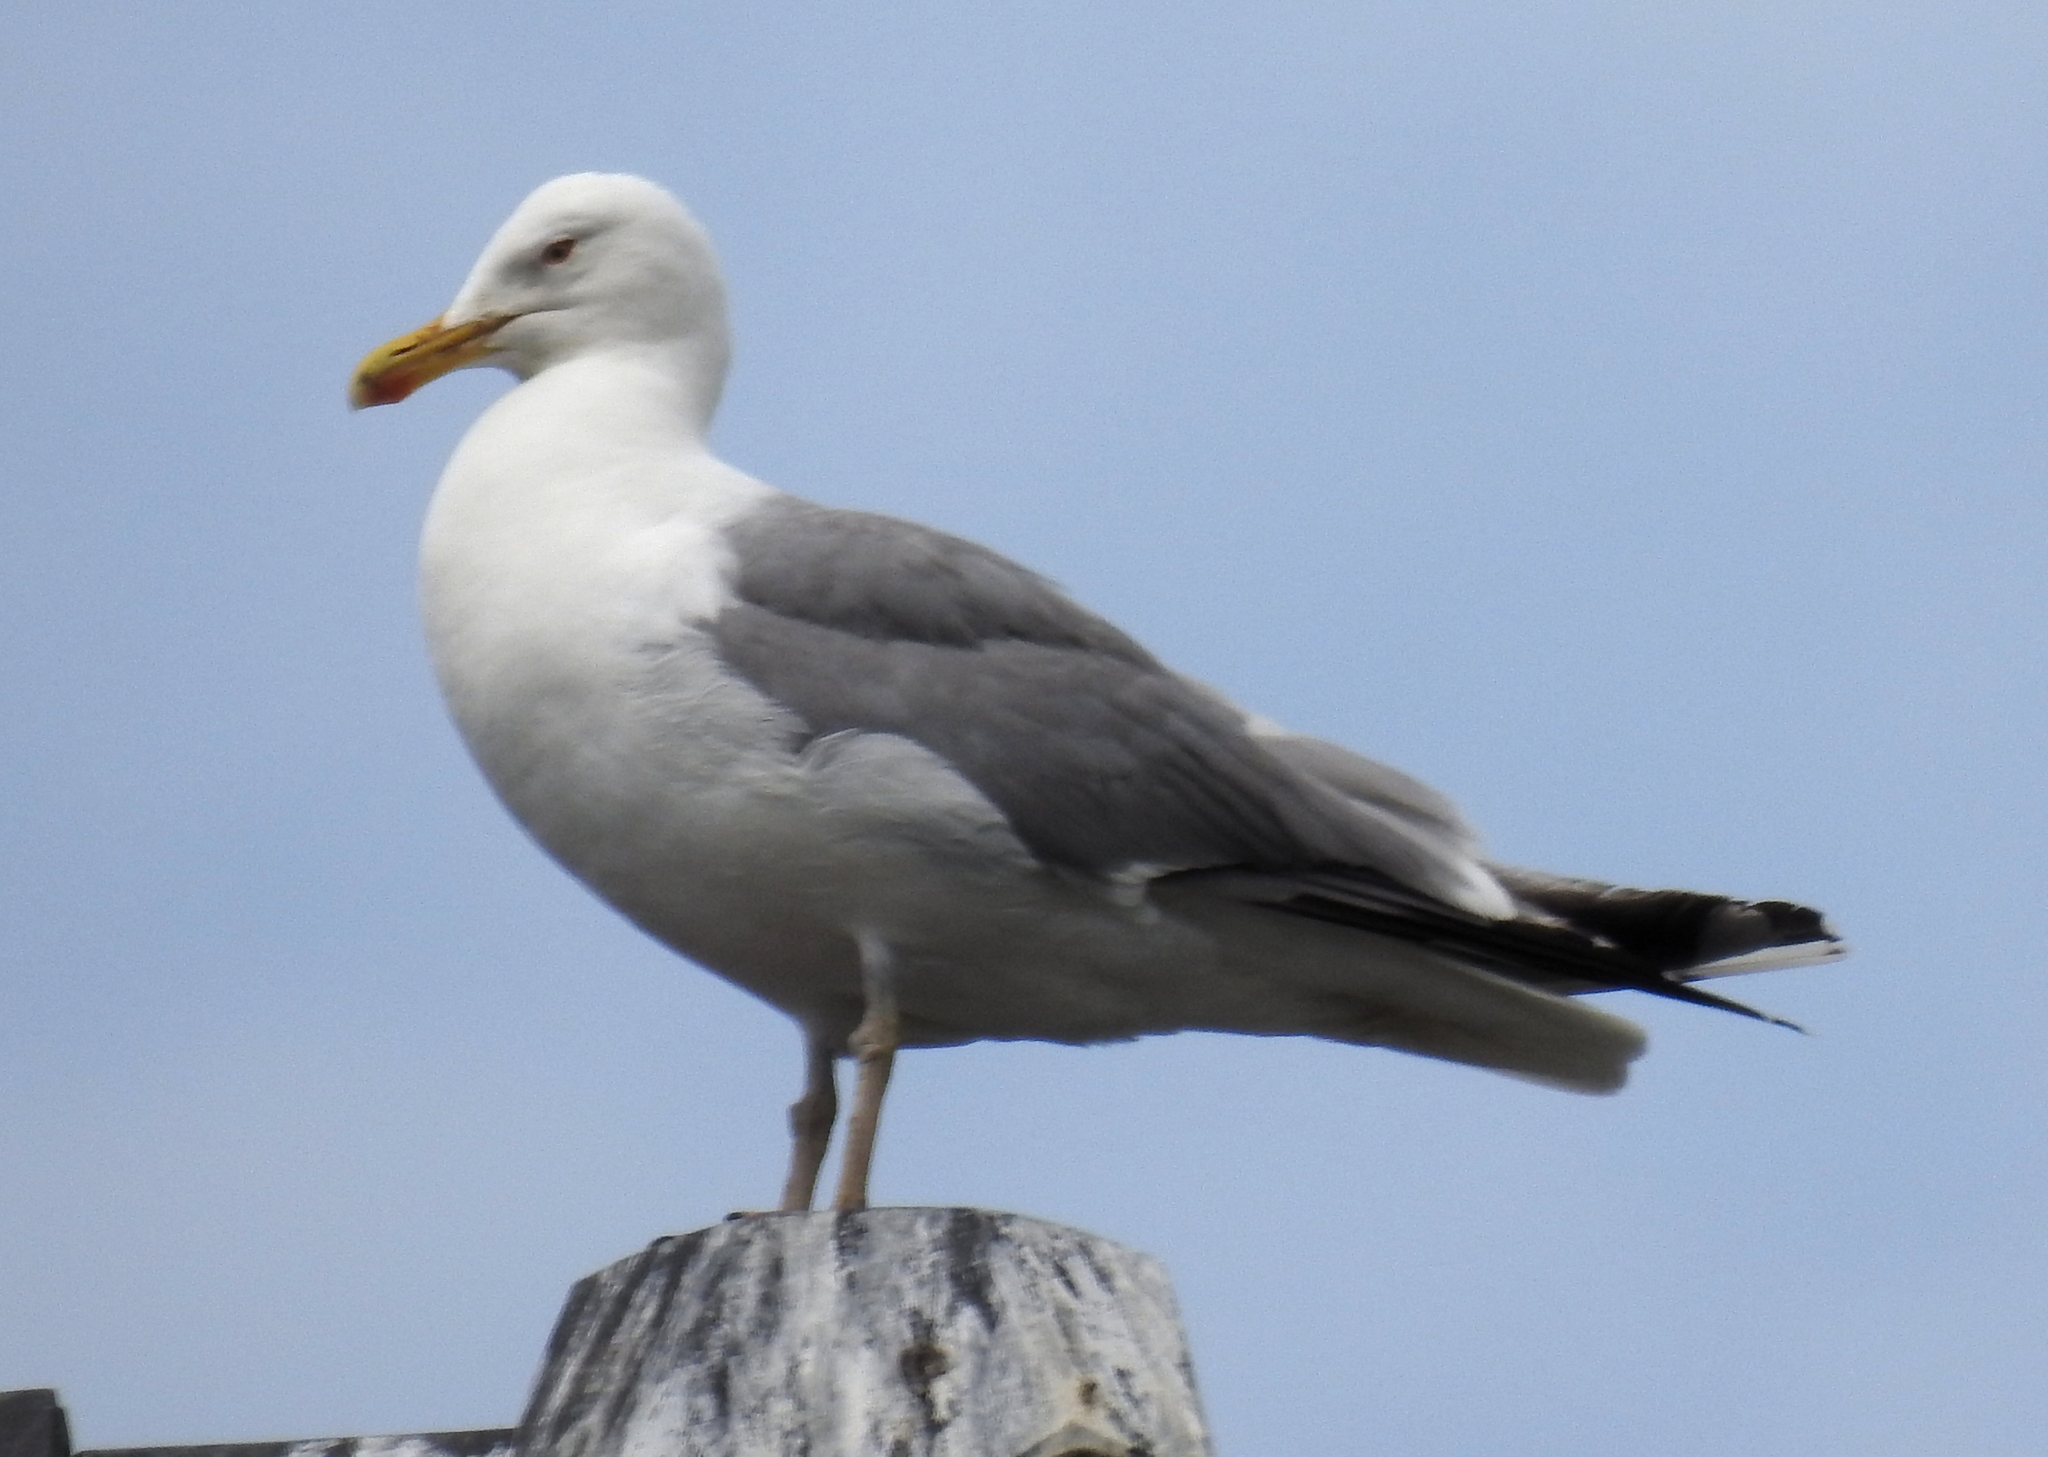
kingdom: Animalia
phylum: Chordata
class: Aves
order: Charadriiformes
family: Laridae
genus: Larus
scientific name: Larus argentatus
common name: Herring gull
